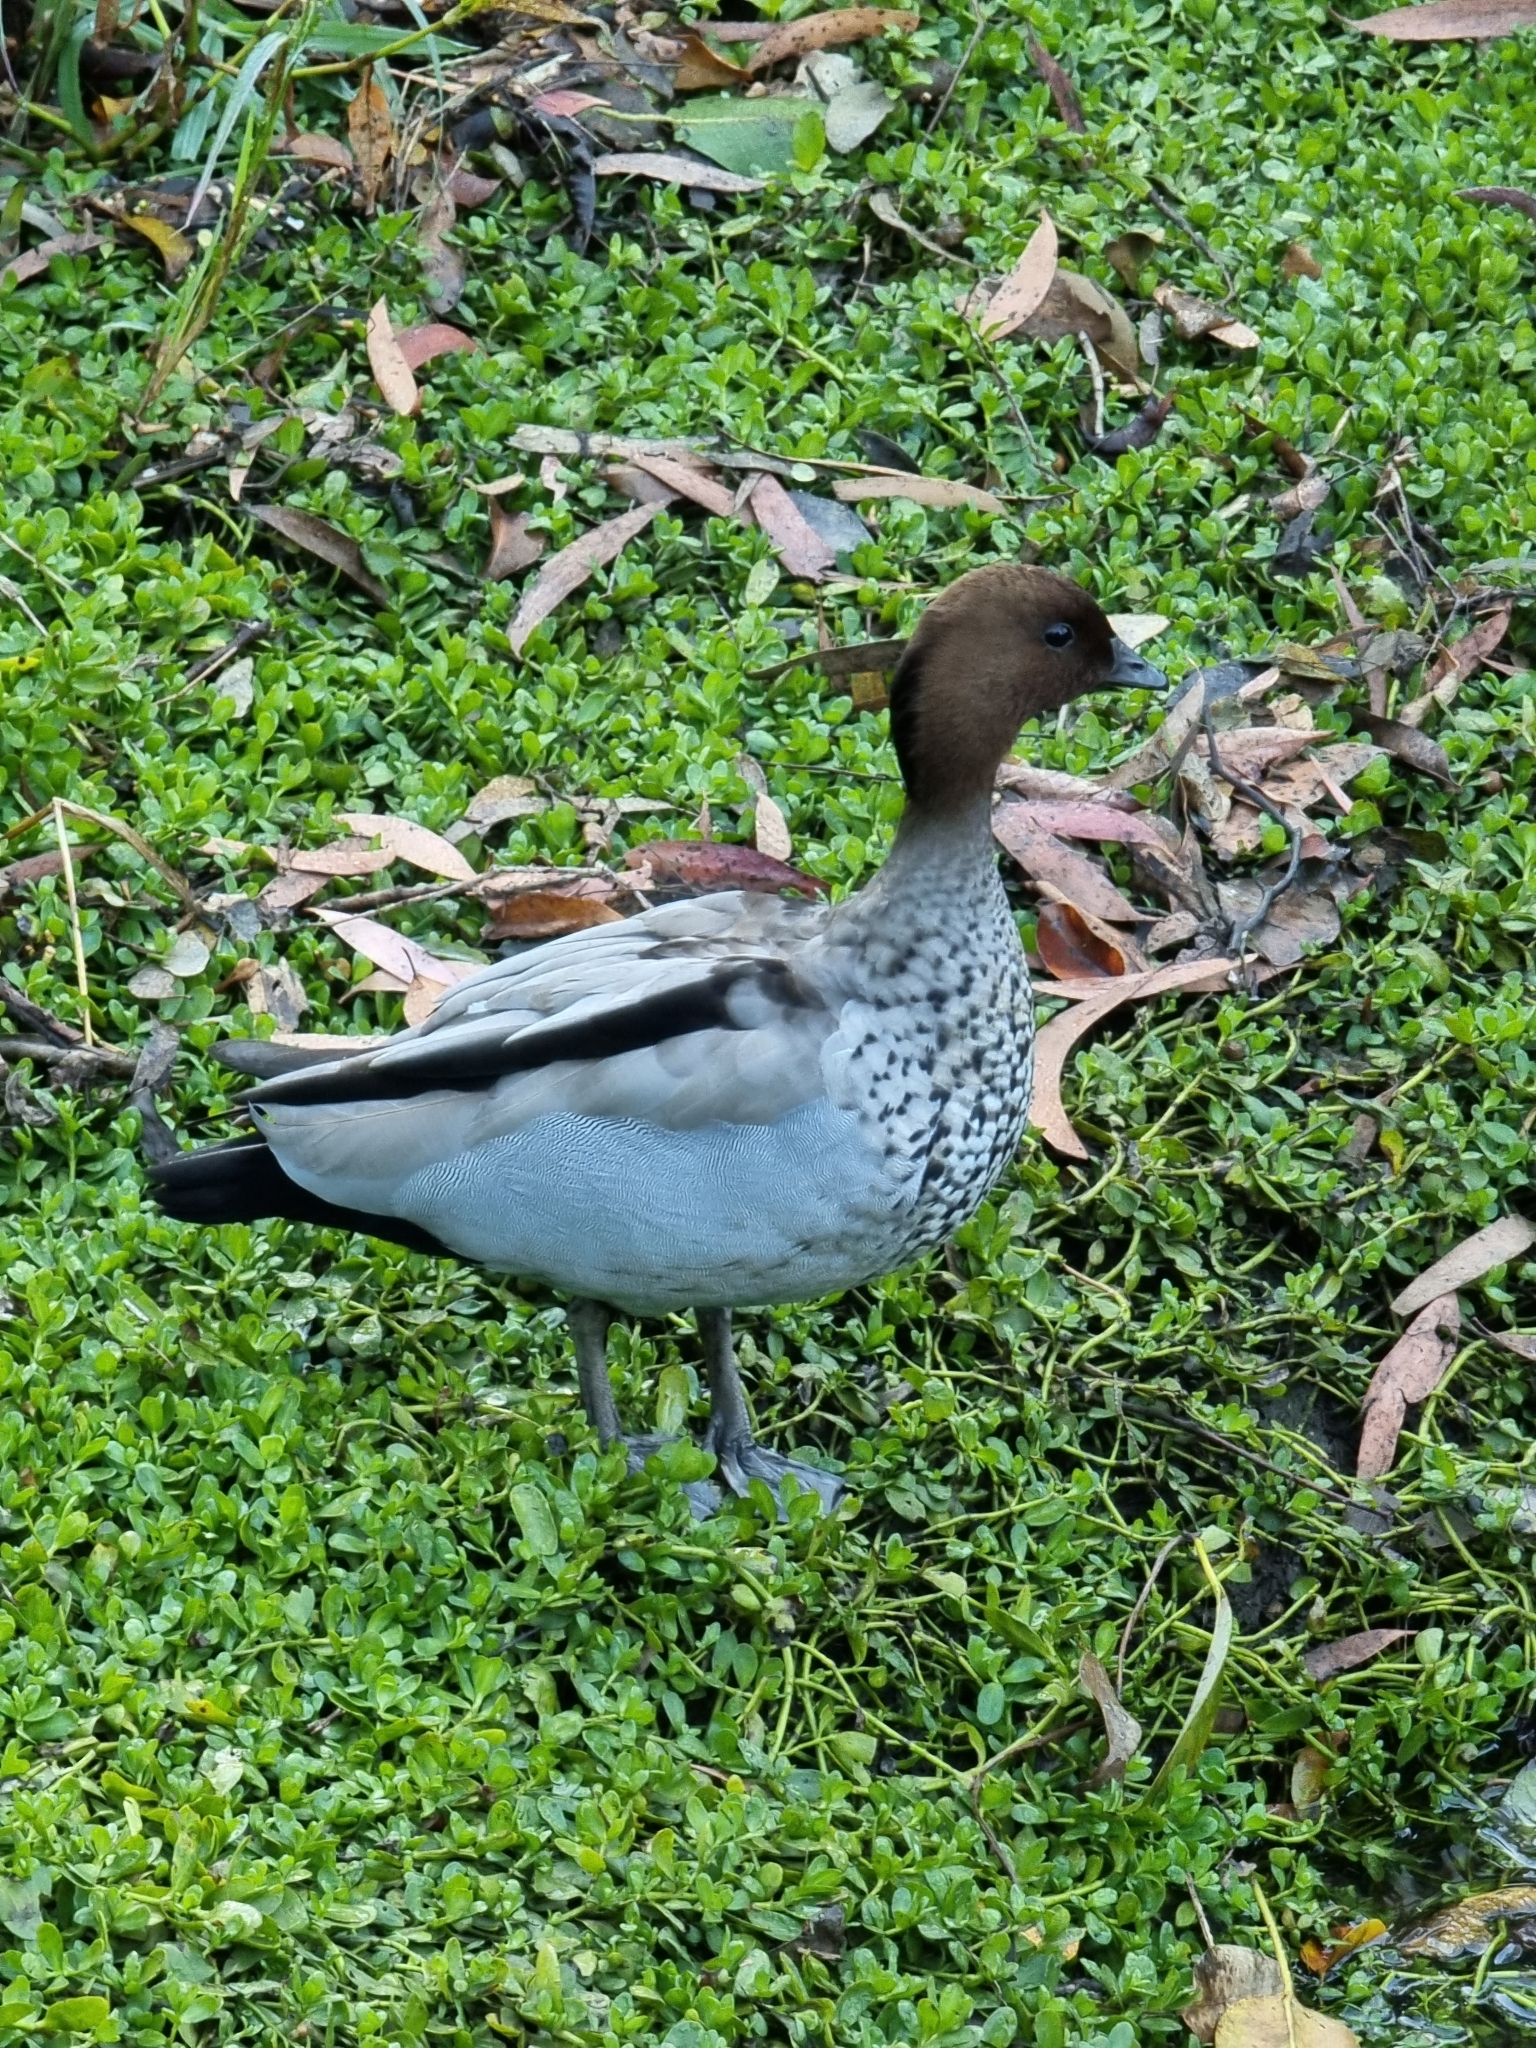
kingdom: Animalia
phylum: Chordata
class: Aves
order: Anseriformes
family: Anatidae
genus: Chenonetta
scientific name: Chenonetta jubata
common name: Maned duck
